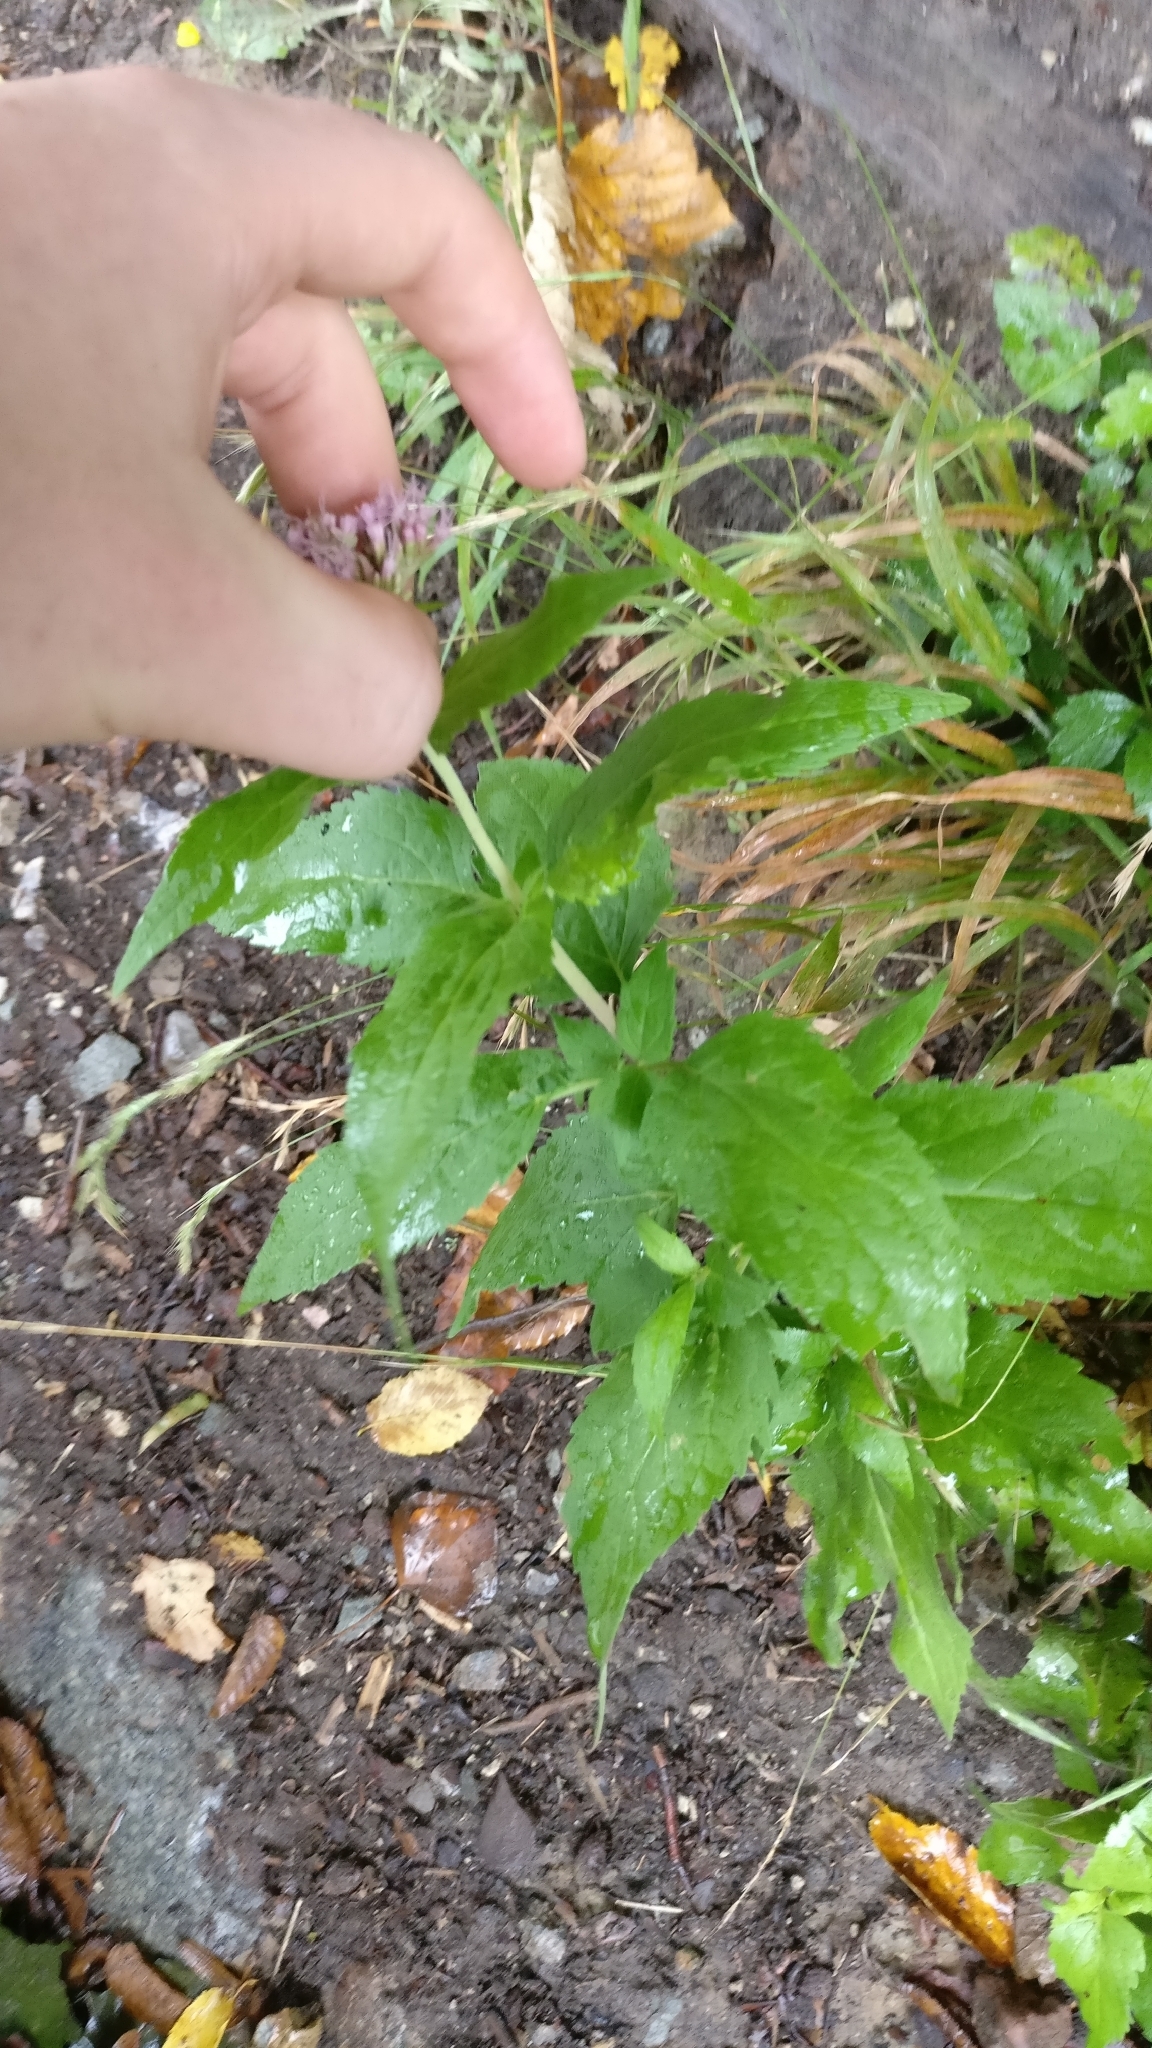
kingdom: Plantae
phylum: Tracheophyta
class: Magnoliopsida
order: Asterales
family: Asteraceae
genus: Eupatorium
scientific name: Eupatorium cannabinum
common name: Hemp-agrimony
